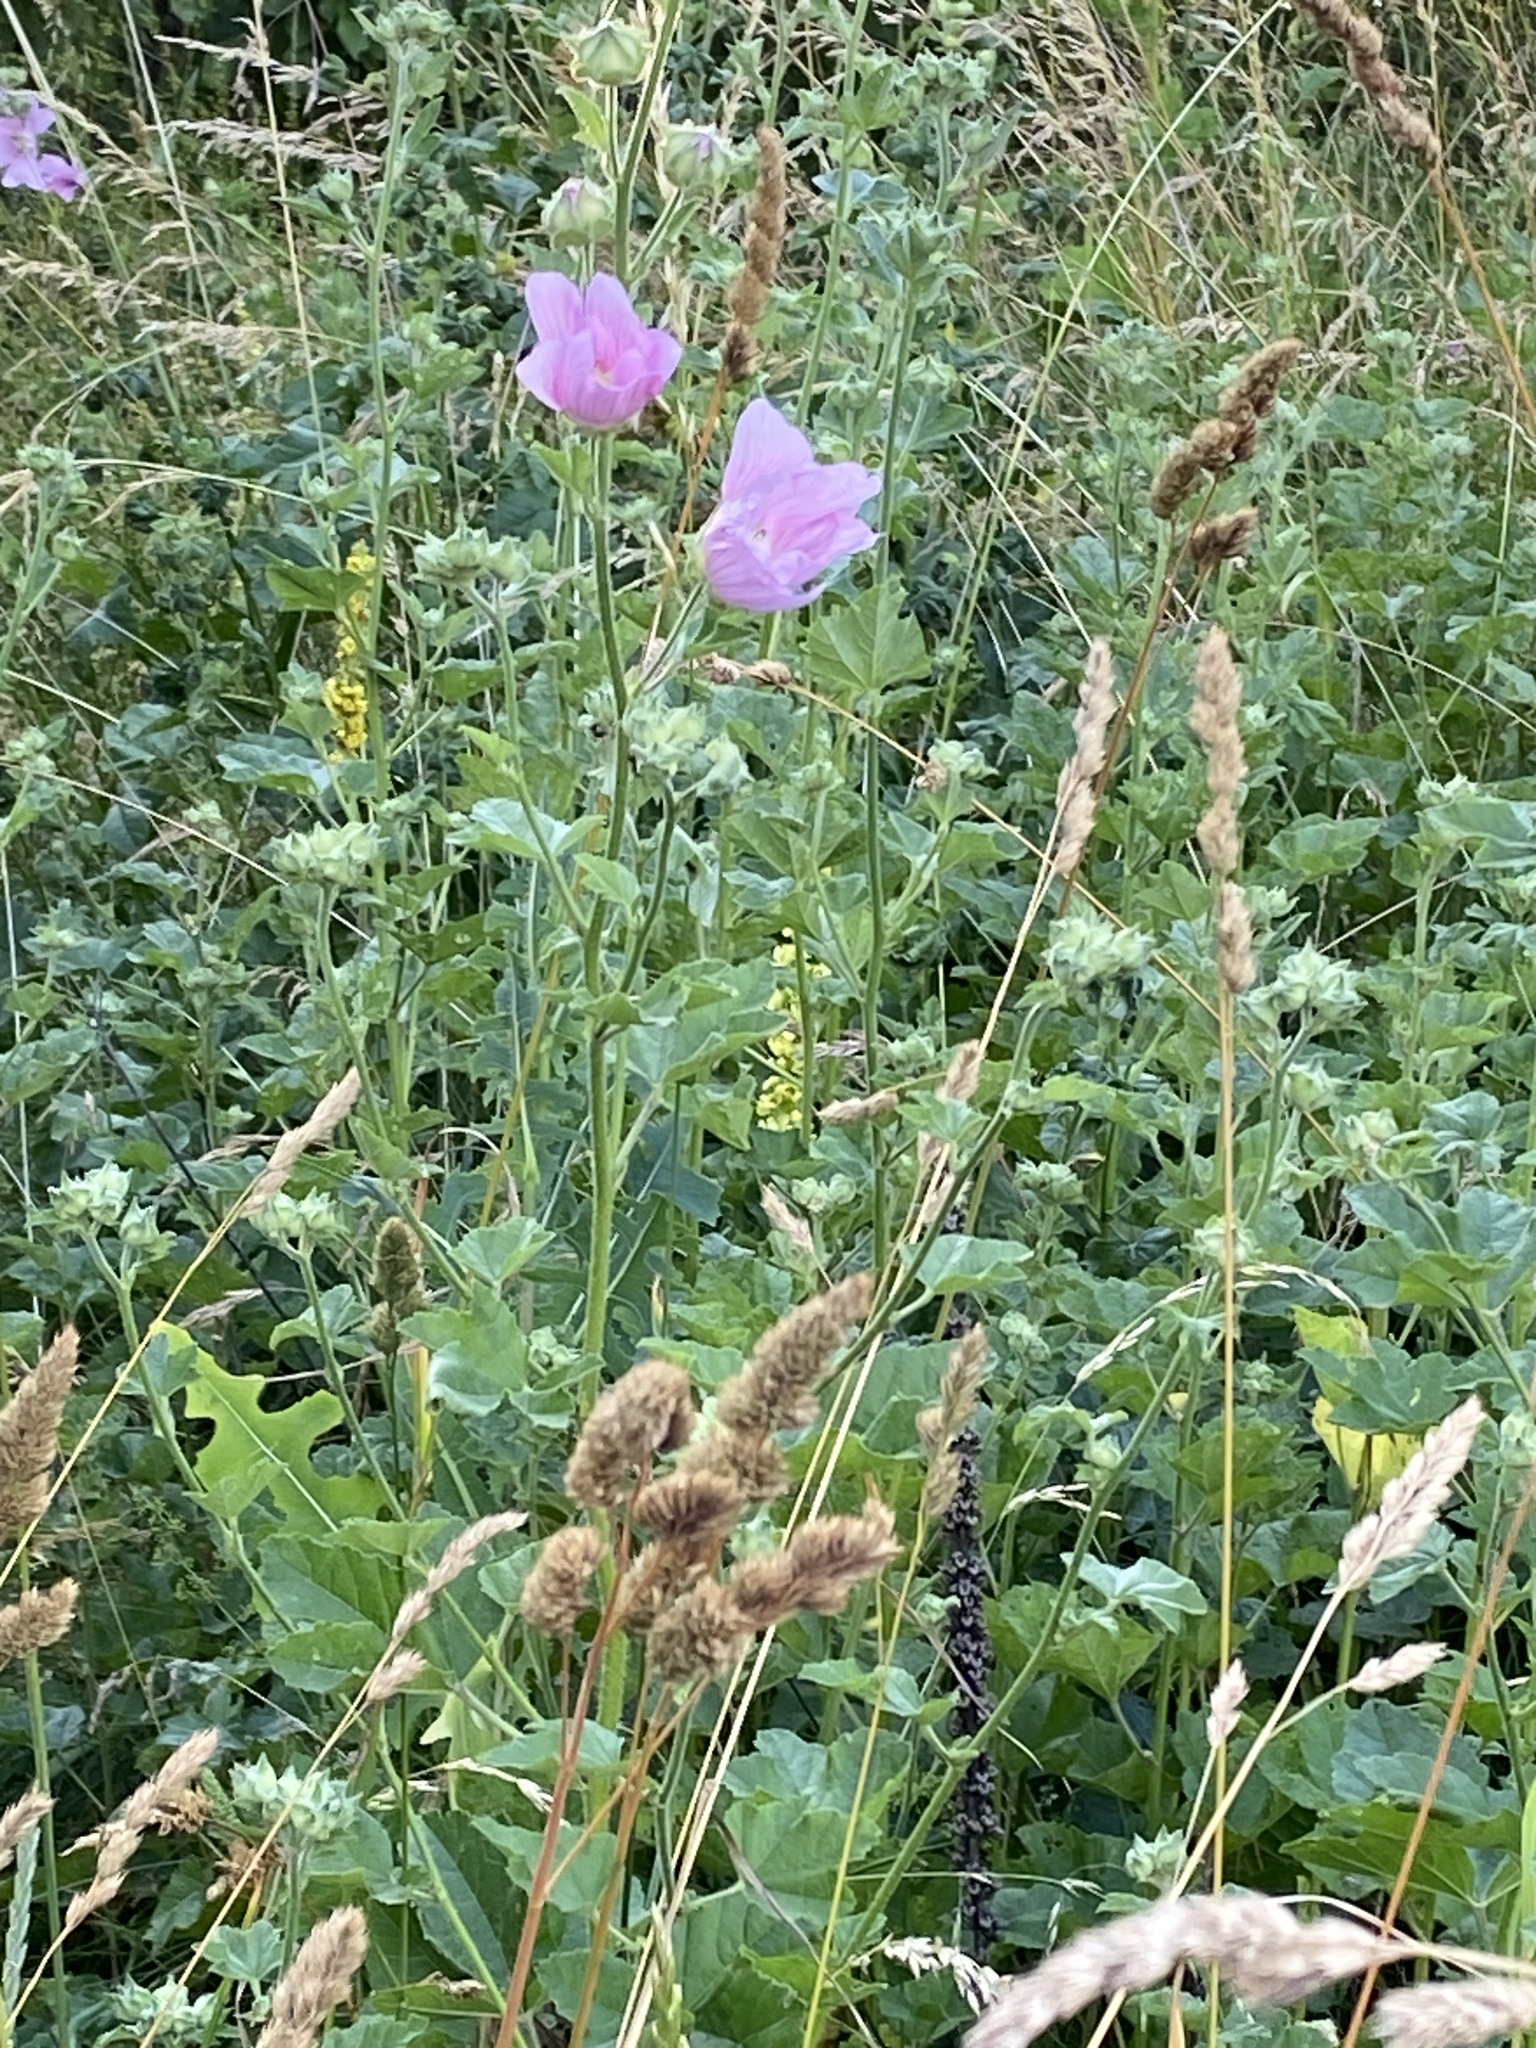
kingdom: Plantae
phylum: Tracheophyta
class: Magnoliopsida
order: Malvales
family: Malvaceae
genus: Malva
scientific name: Malva thuringiaca
